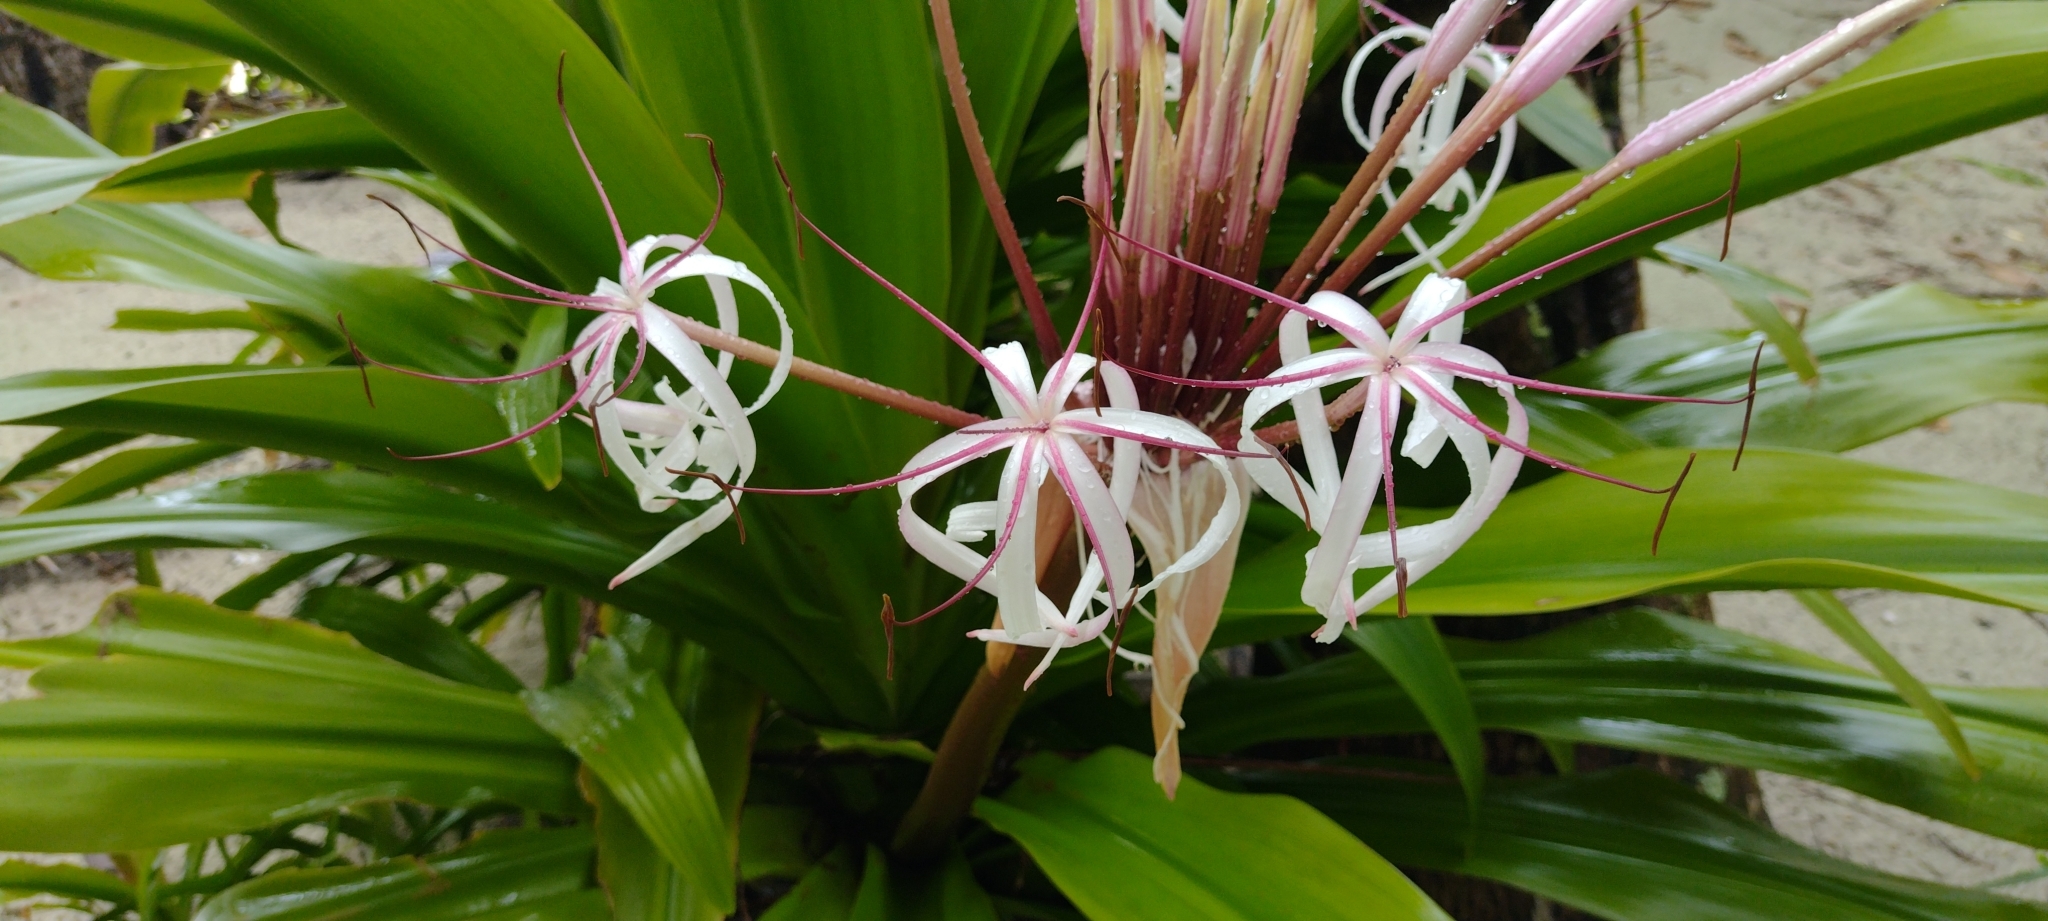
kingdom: Plantae
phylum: Tracheophyta
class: Liliopsida
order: Asparagales
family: Amaryllidaceae
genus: Crinum
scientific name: Crinum asiaticum
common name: Poisonbulb
